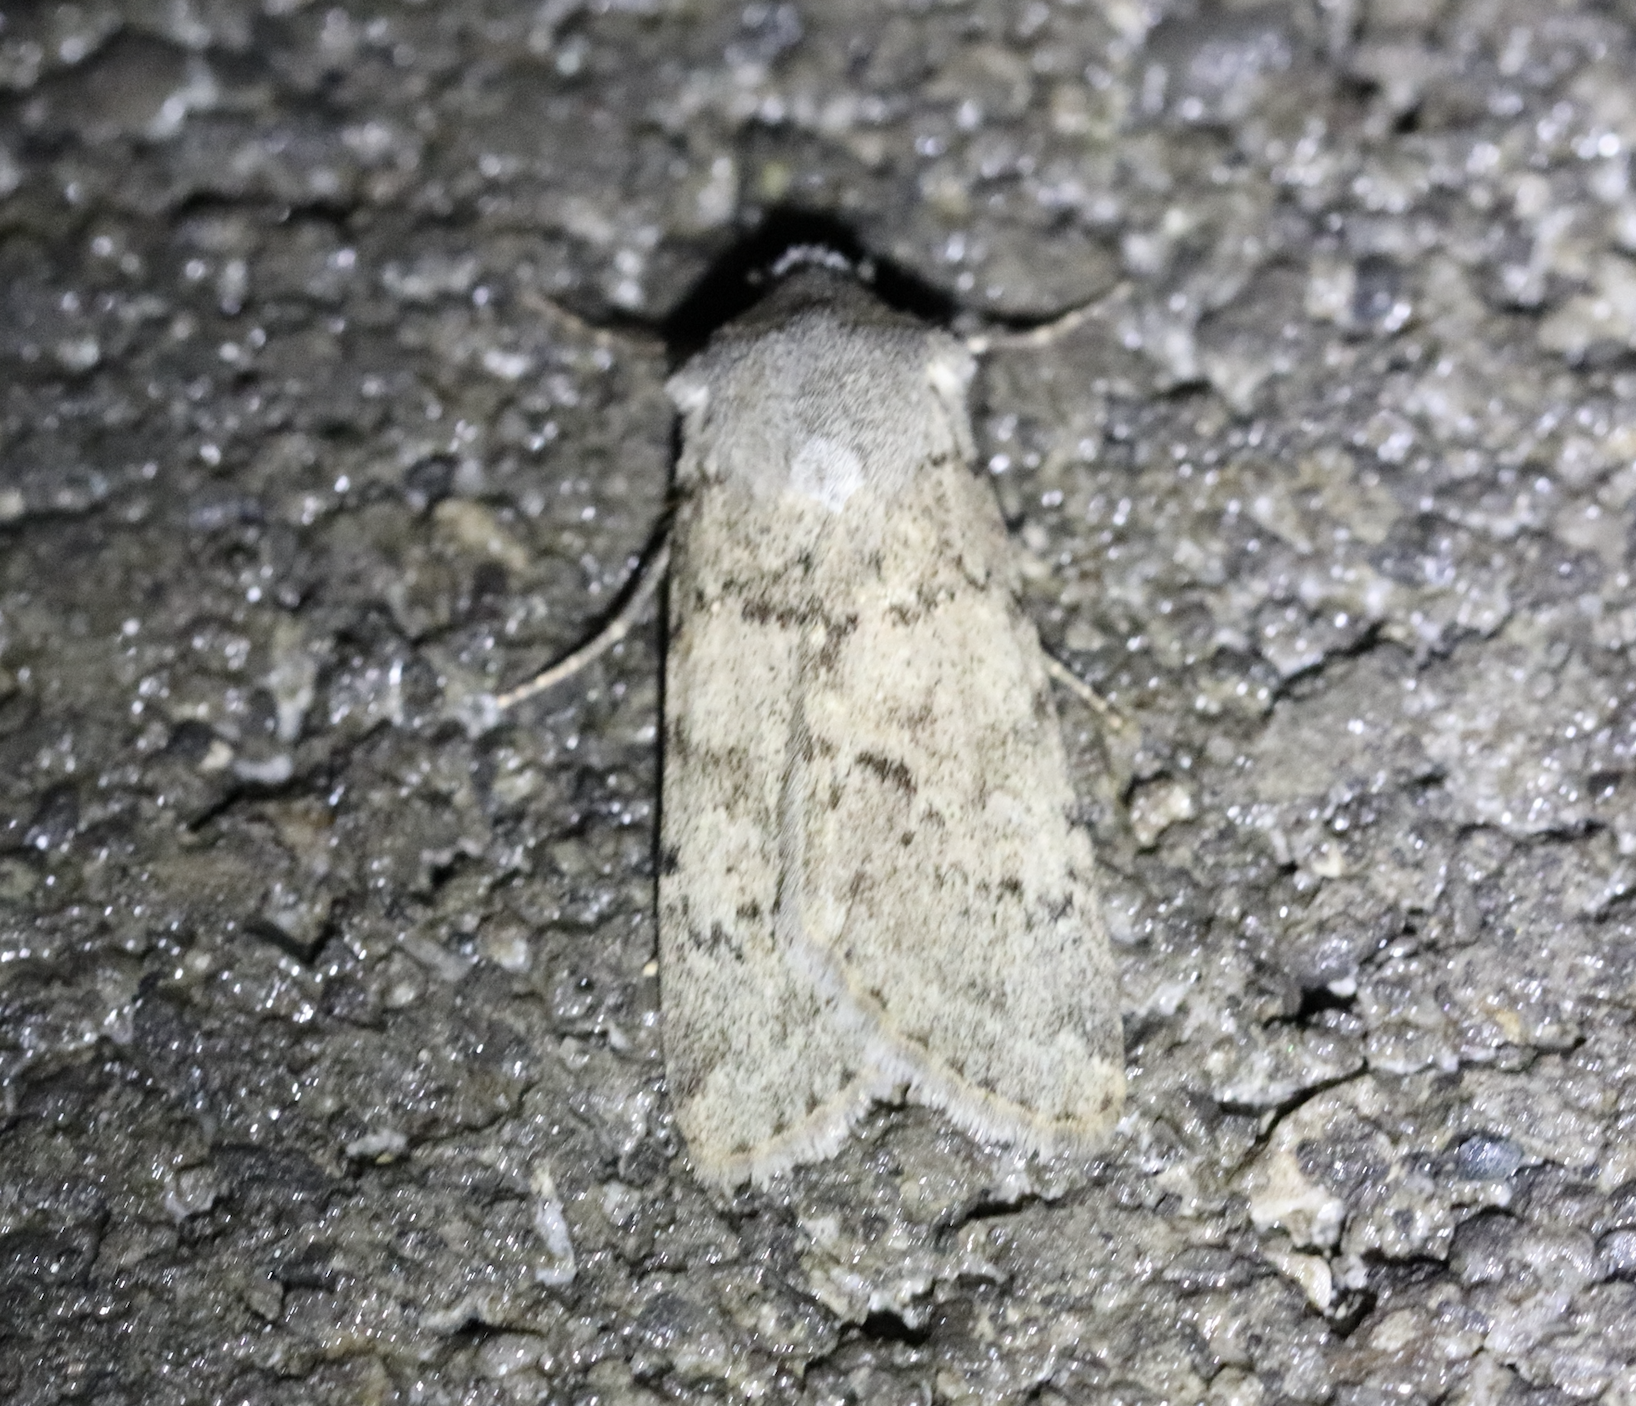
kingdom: Animalia
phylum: Arthropoda
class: Insecta
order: Lepidoptera
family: Noctuidae
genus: Epipsilia
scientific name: Epipsilia grisescens
